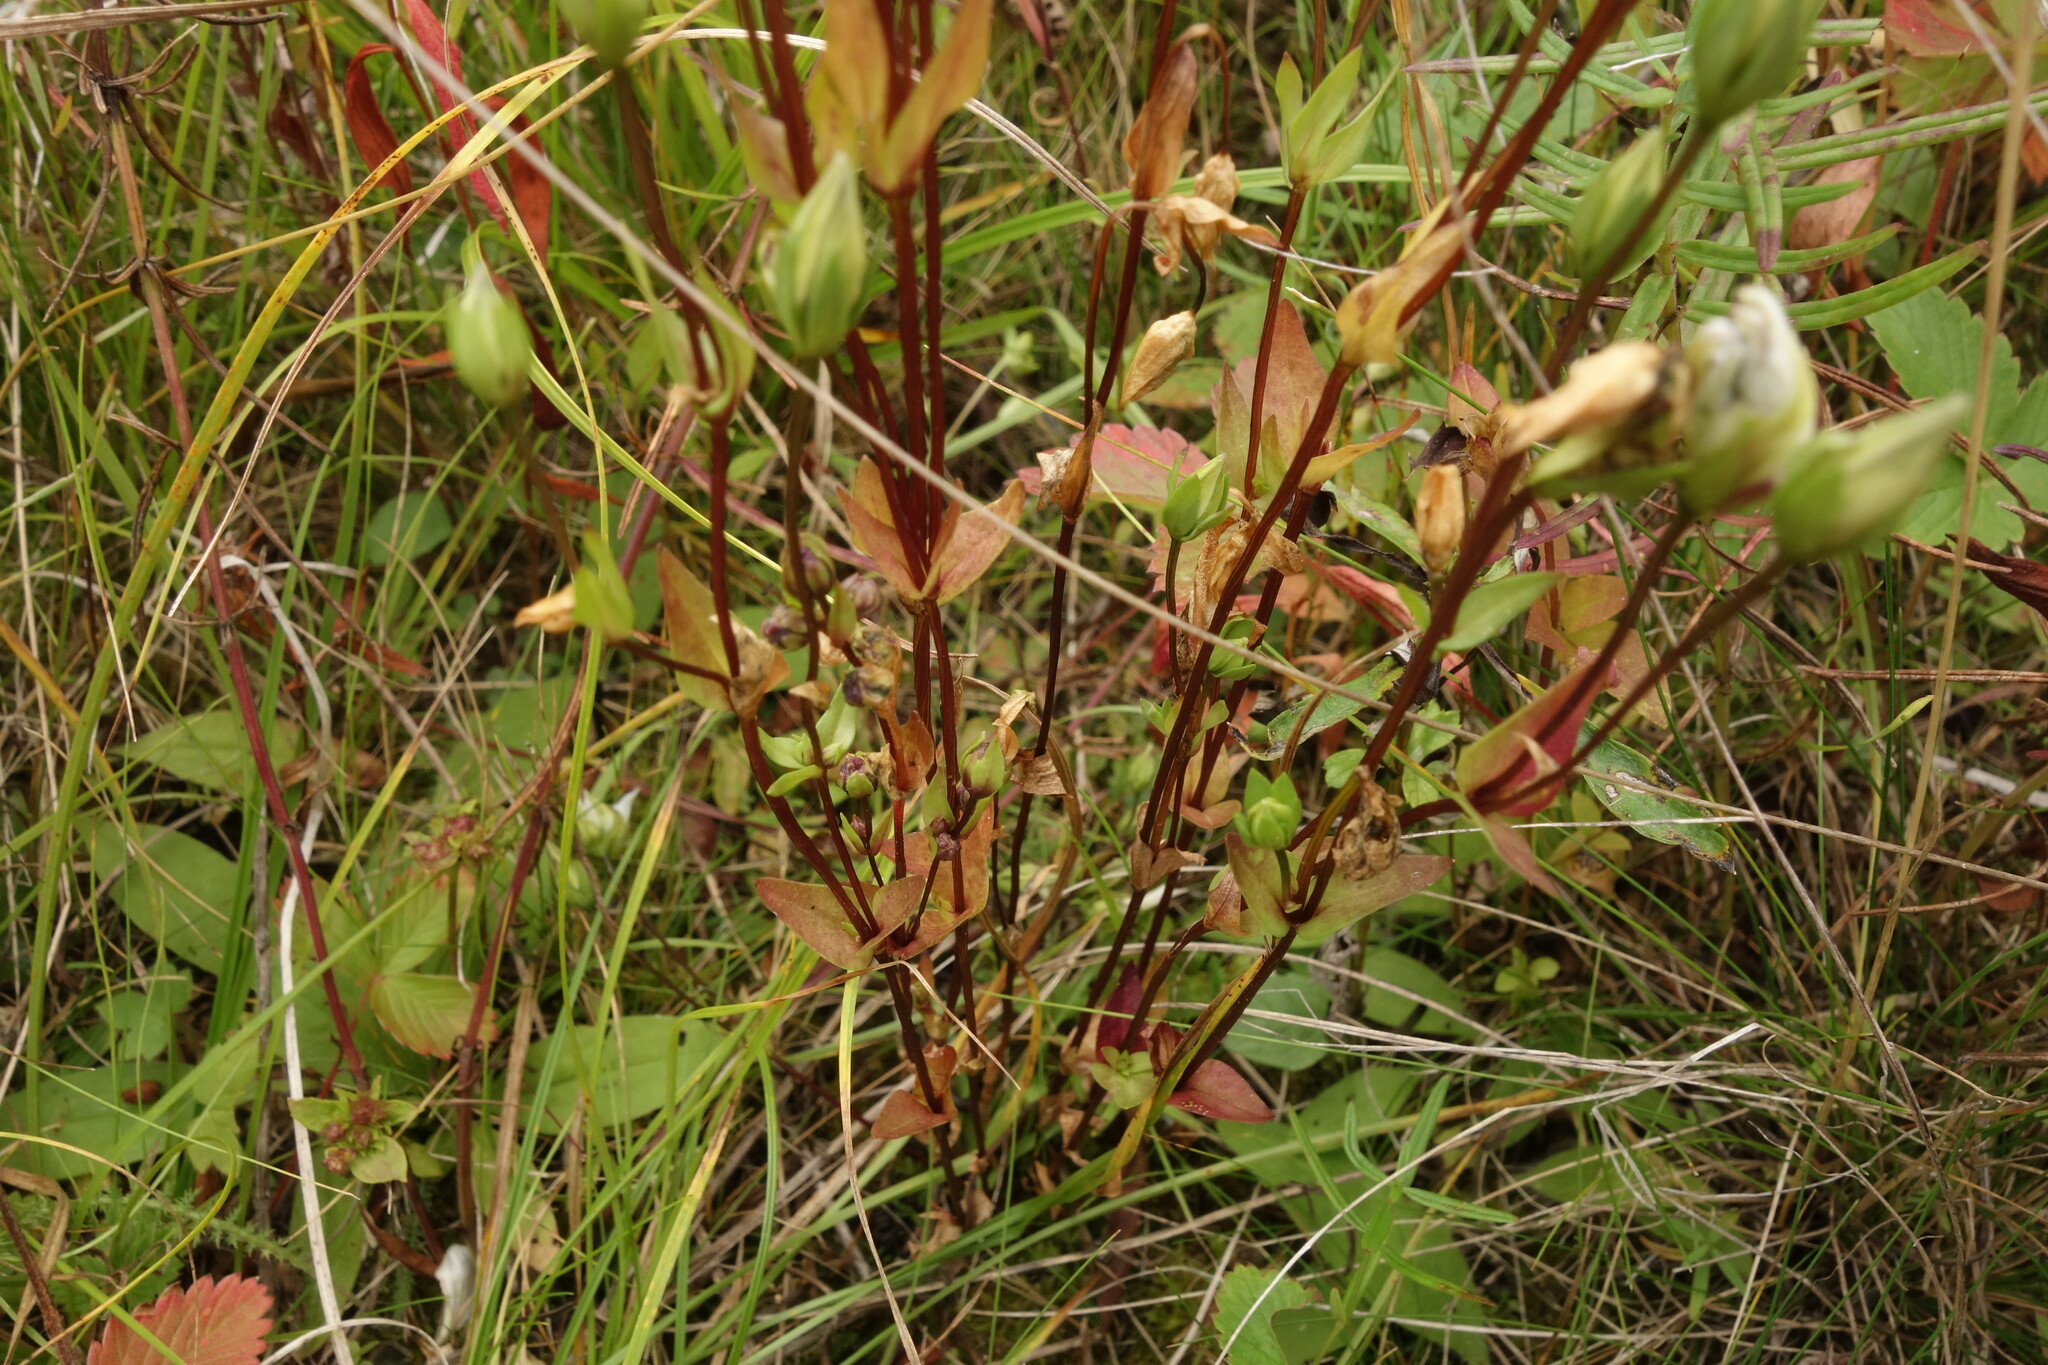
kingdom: Plantae
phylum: Tracheophyta
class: Magnoliopsida
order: Gentianales
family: Gentianaceae
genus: Lomatogonium
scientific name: Lomatogonium carinthiacum
